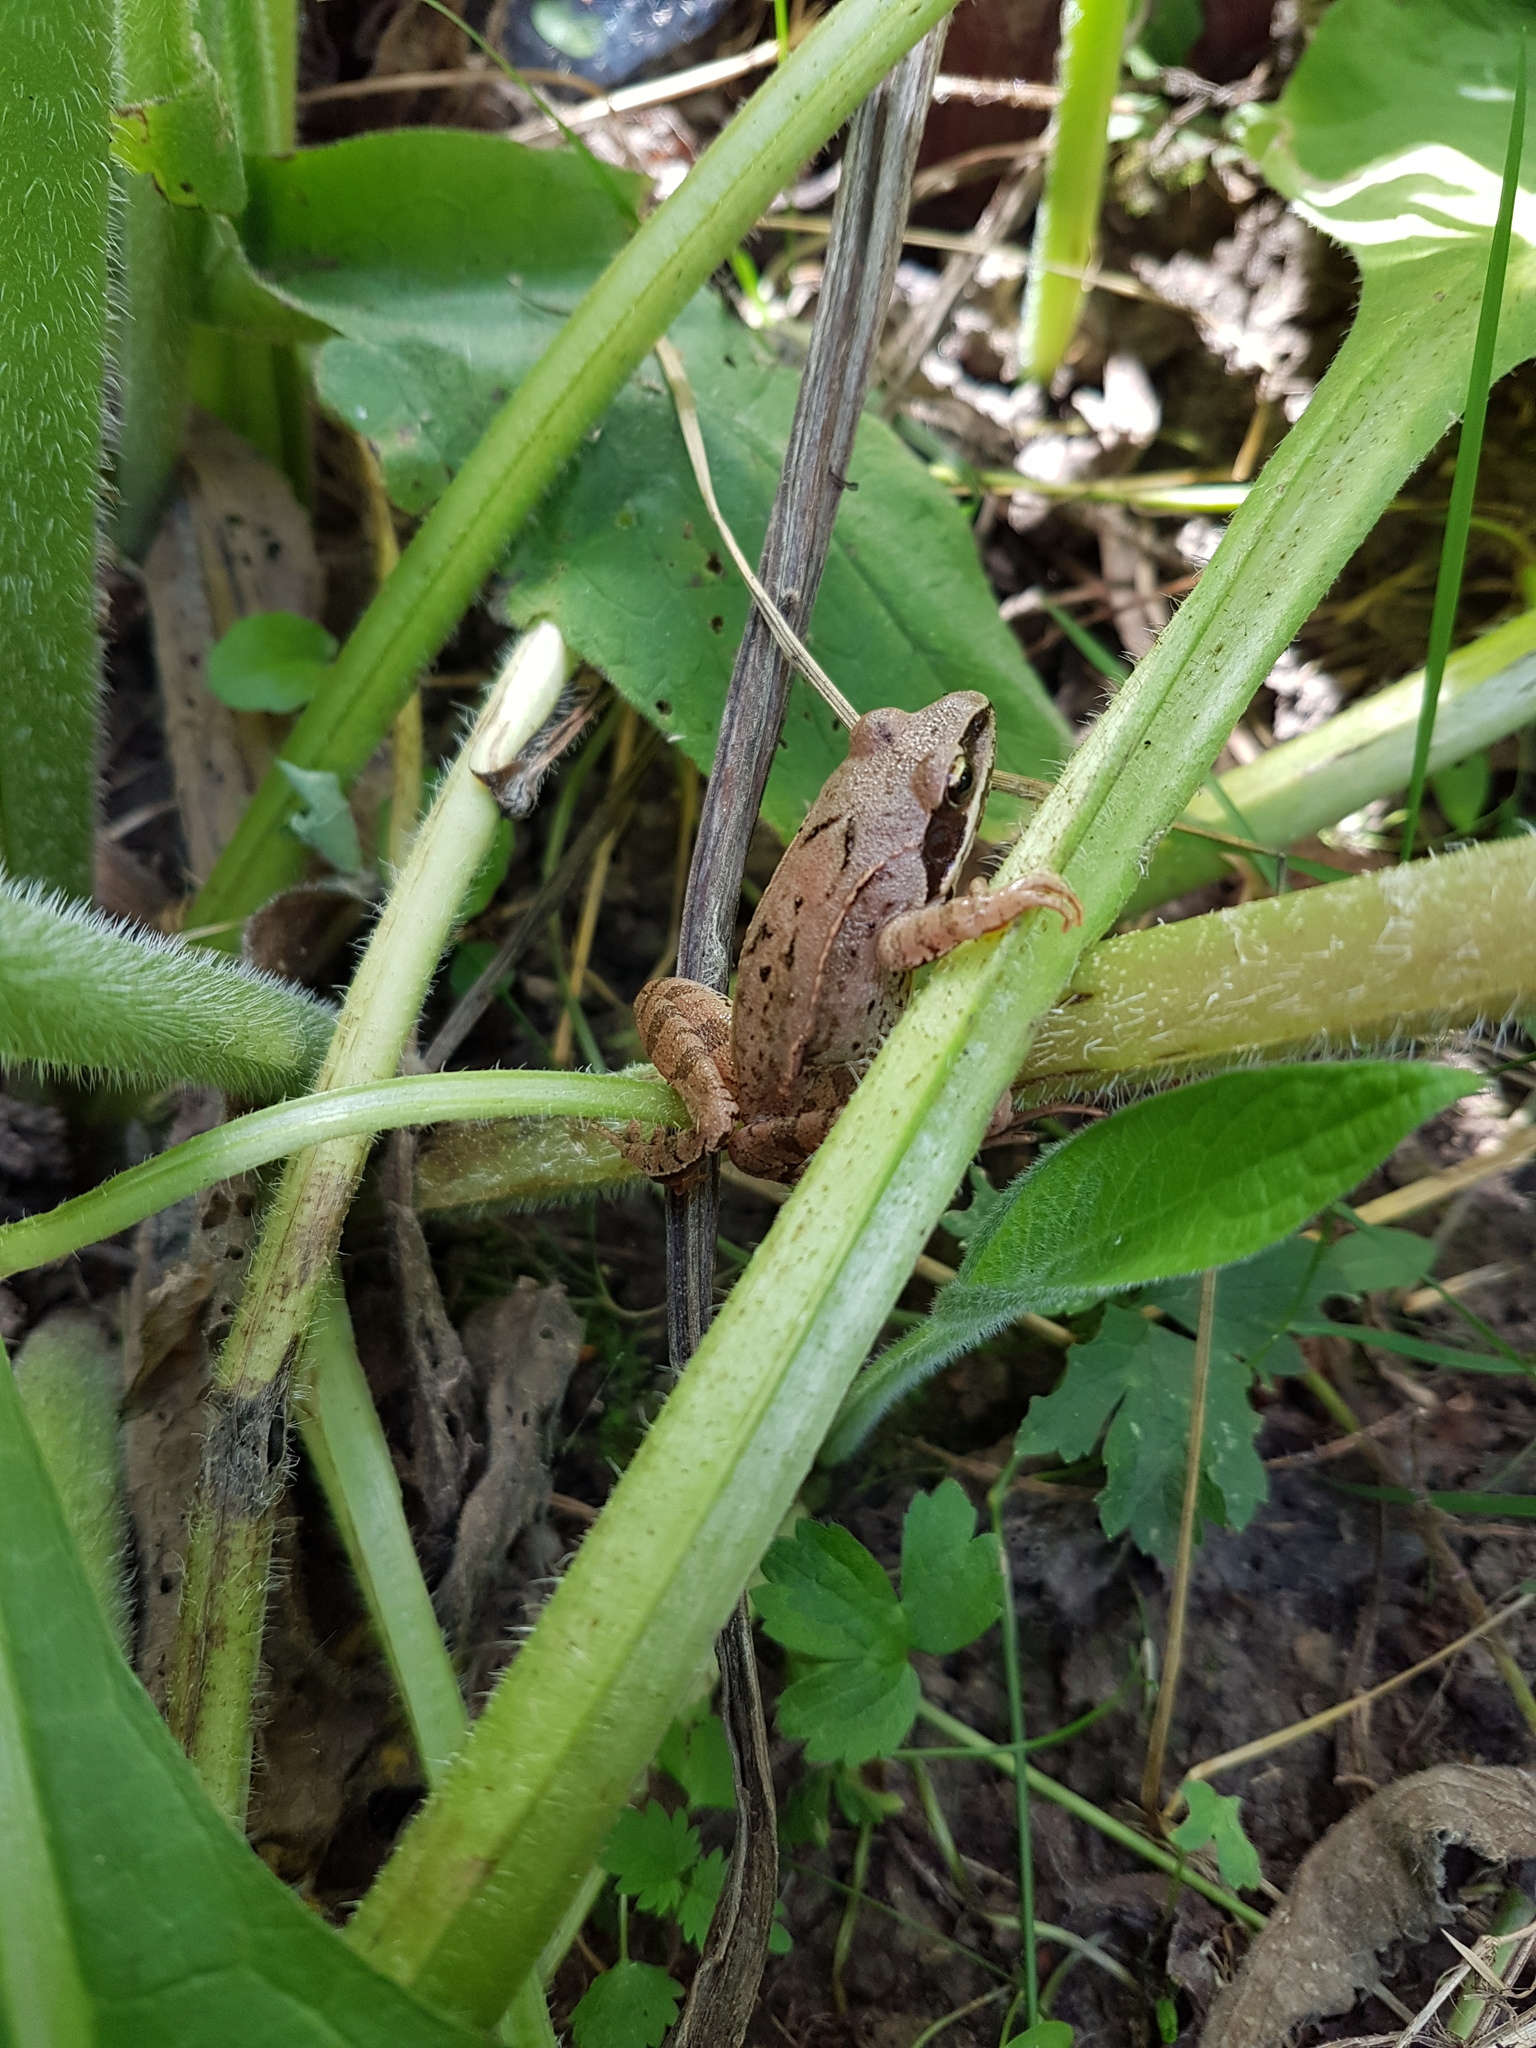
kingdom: Animalia
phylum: Chordata
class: Amphibia
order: Anura
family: Ranidae
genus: Rana
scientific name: Rana dalmatina
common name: Agile frog
